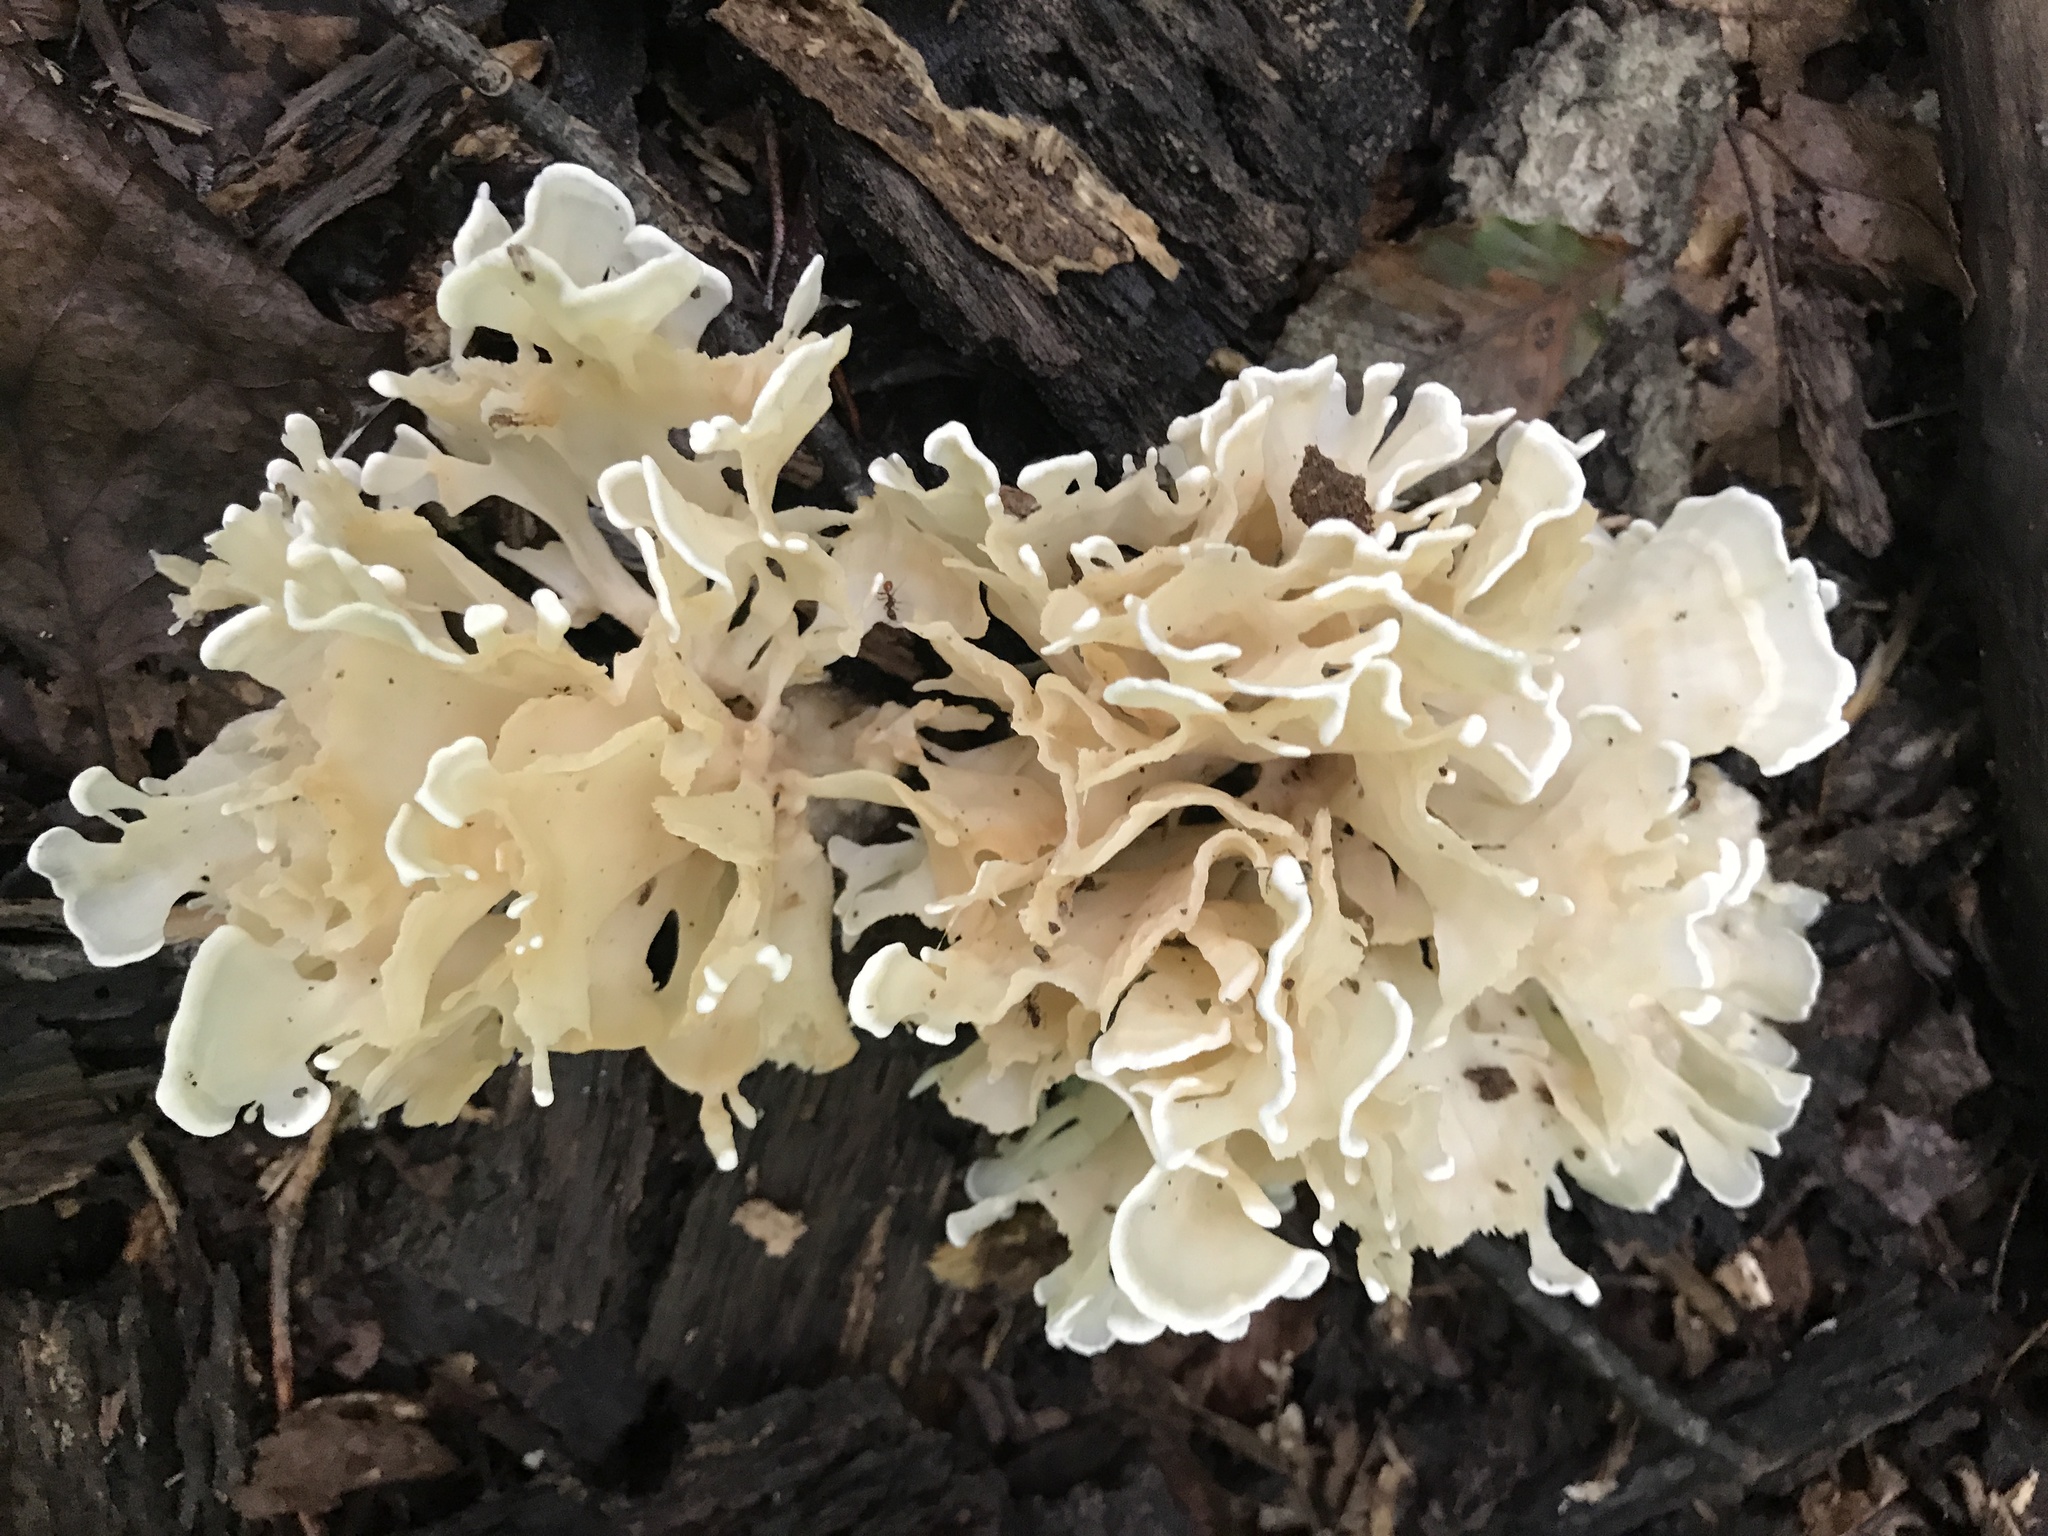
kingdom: Fungi
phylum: Basidiomycota
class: Agaricomycetes
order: Polyporales
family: Sparassidaceae
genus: Sparassis
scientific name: Sparassis spathulata
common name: Eastern cauliflower mushroom
